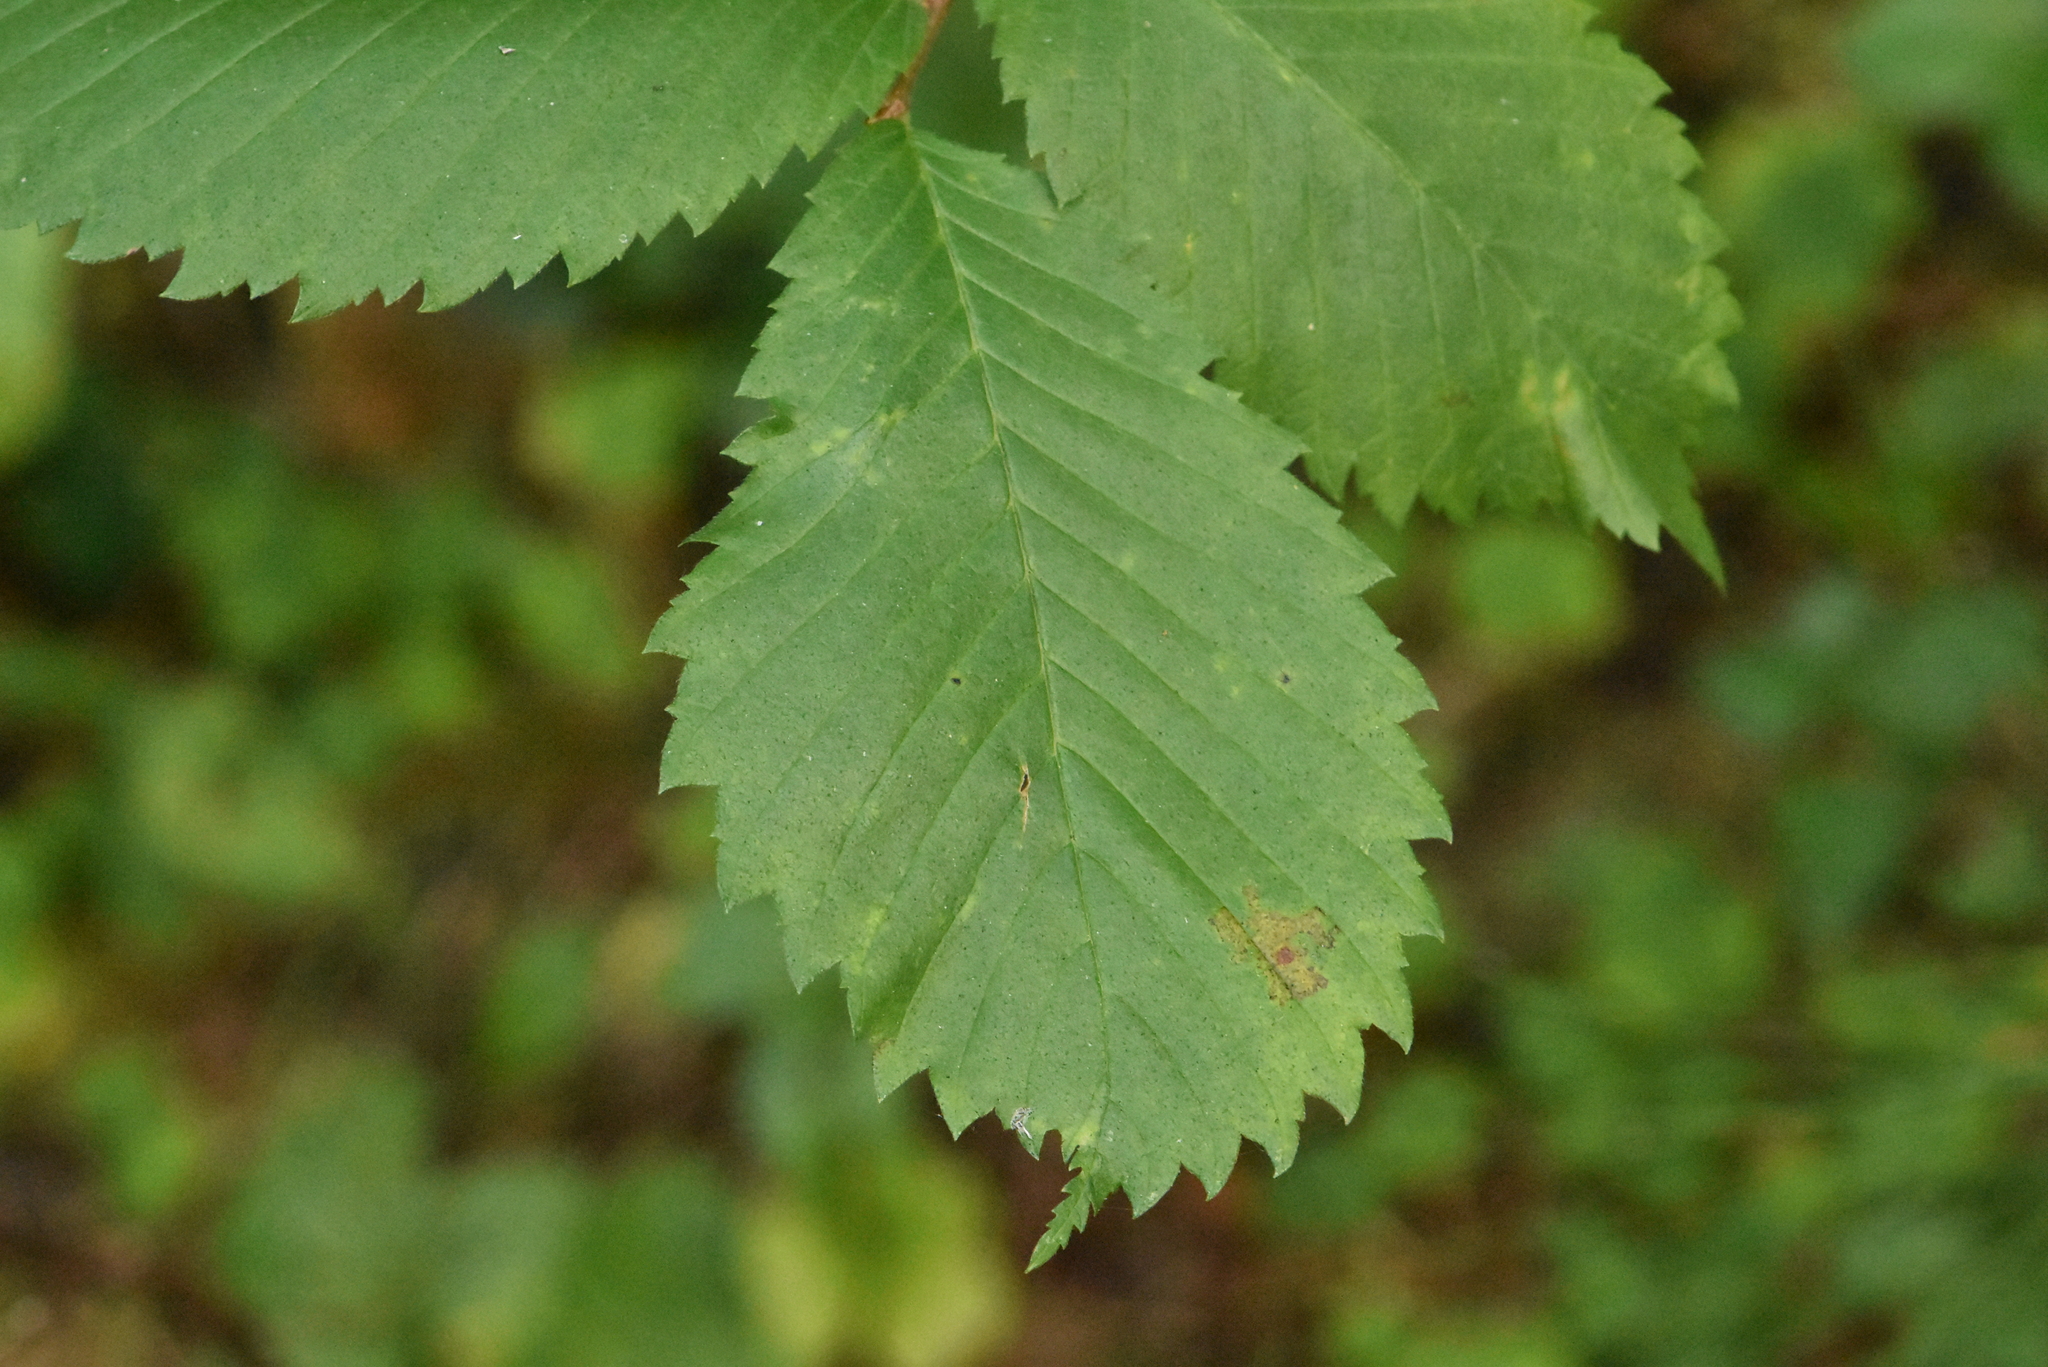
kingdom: Plantae
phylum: Tracheophyta
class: Magnoliopsida
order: Rosales
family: Ulmaceae
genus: Ulmus
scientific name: Ulmus laevis
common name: European white-elm
